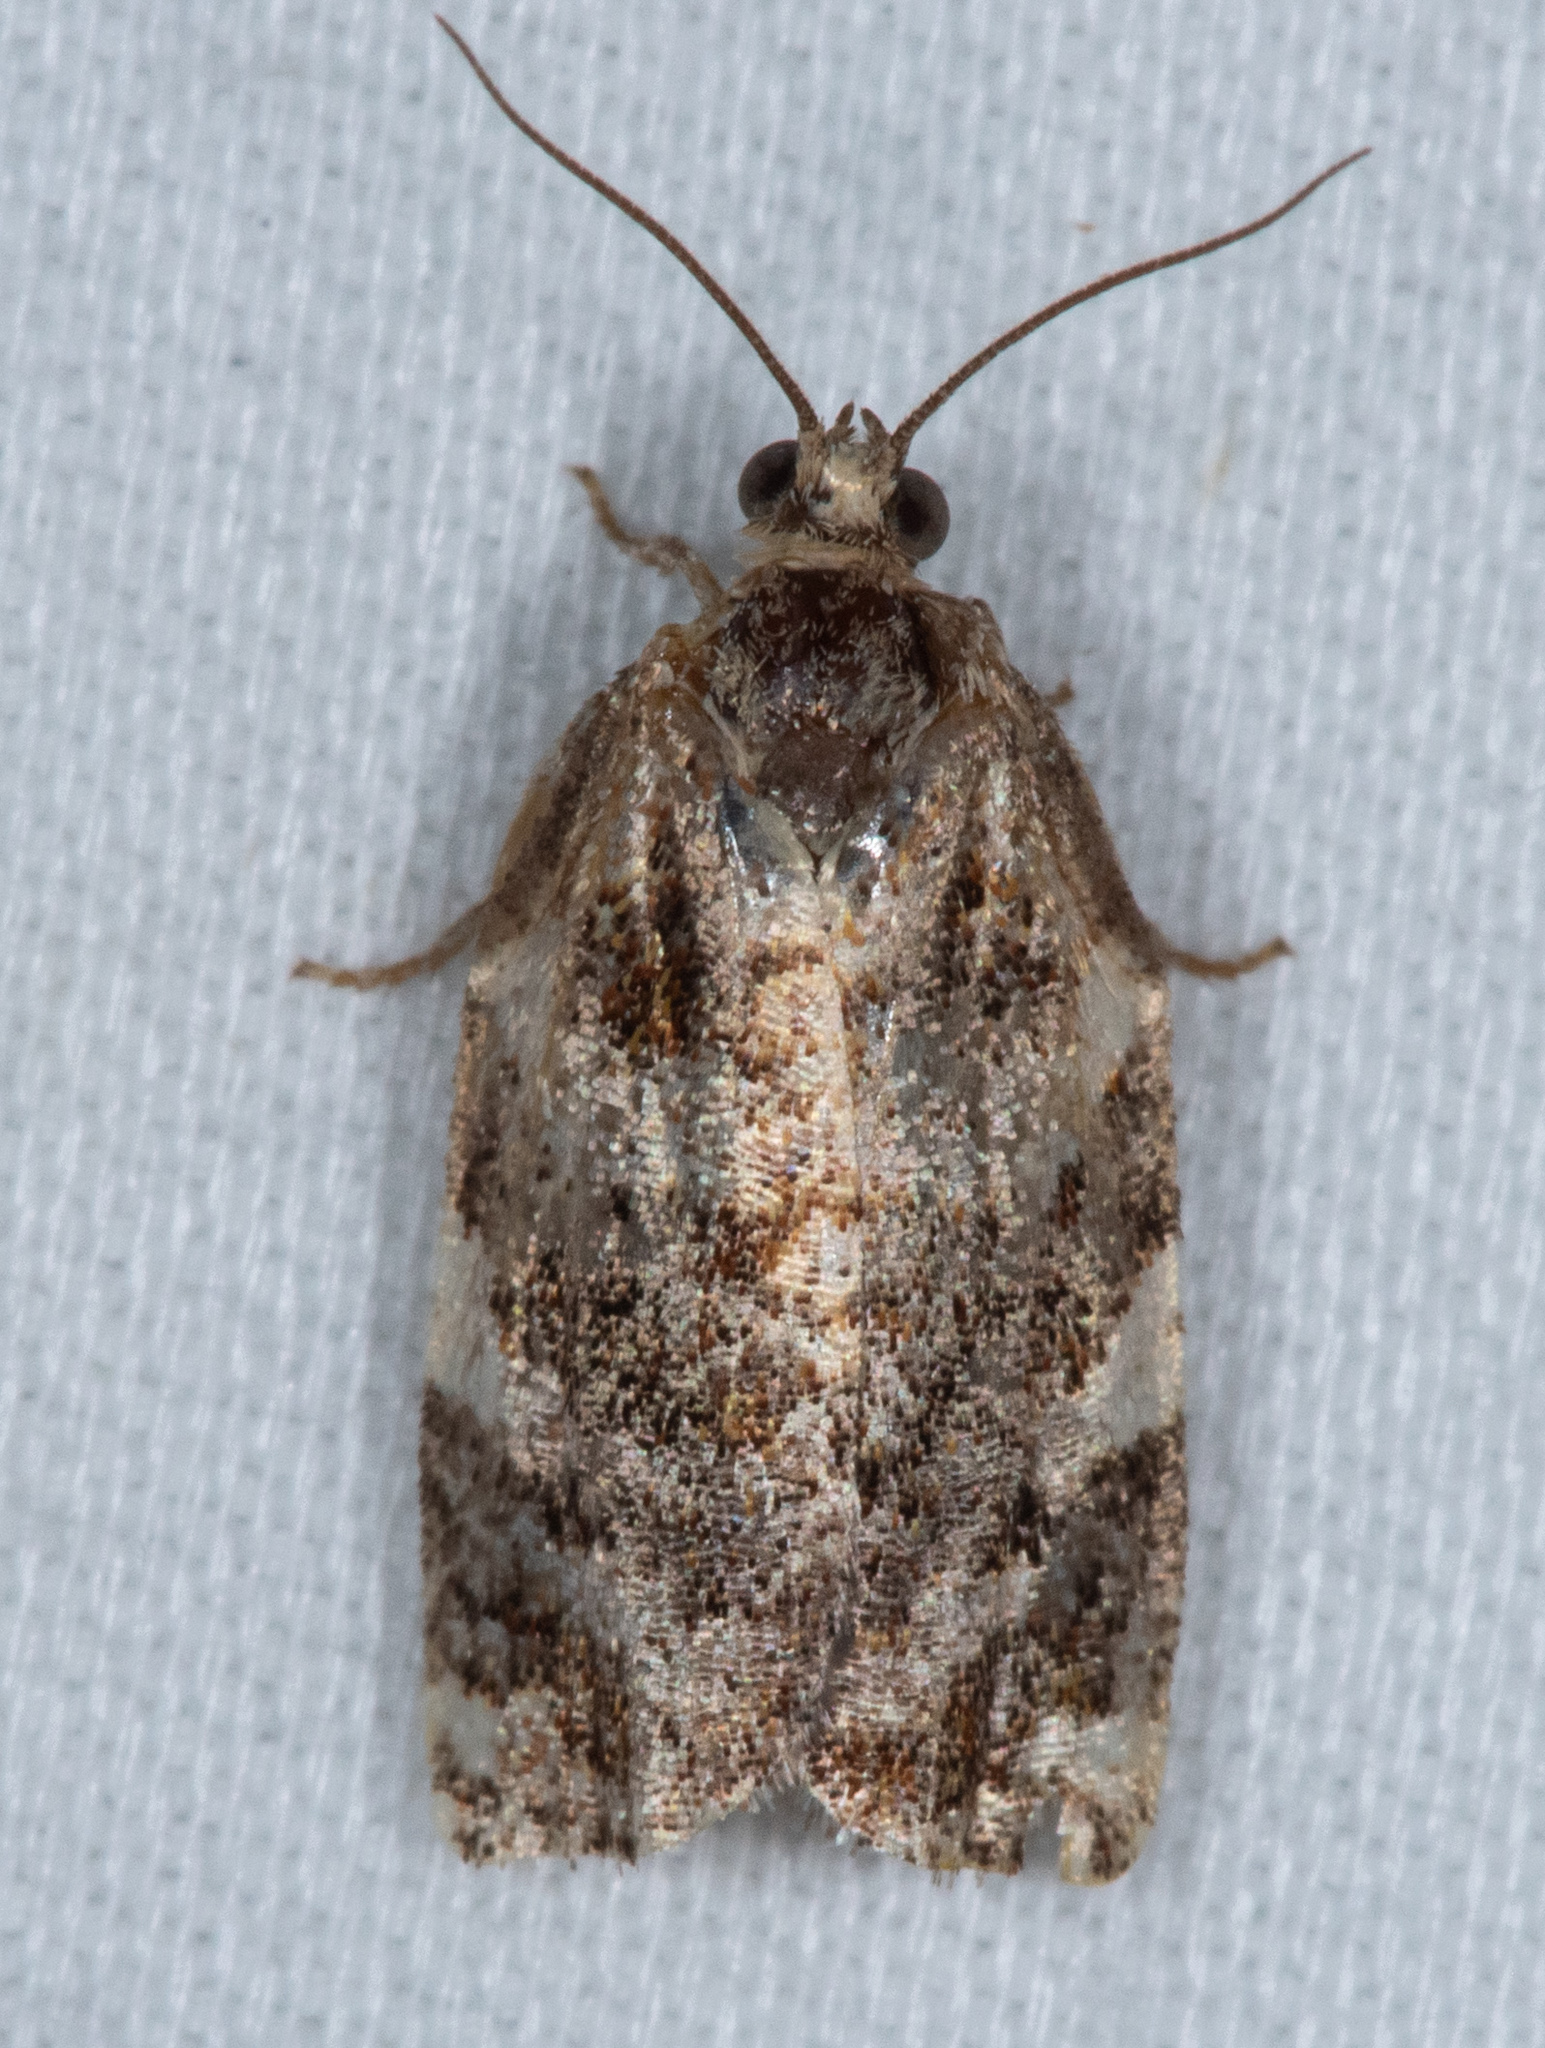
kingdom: Animalia
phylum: Arthropoda
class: Insecta
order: Lepidoptera
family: Tortricidae
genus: Archips
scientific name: Archips argyrospila
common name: Fruit-tree leafroller moth
